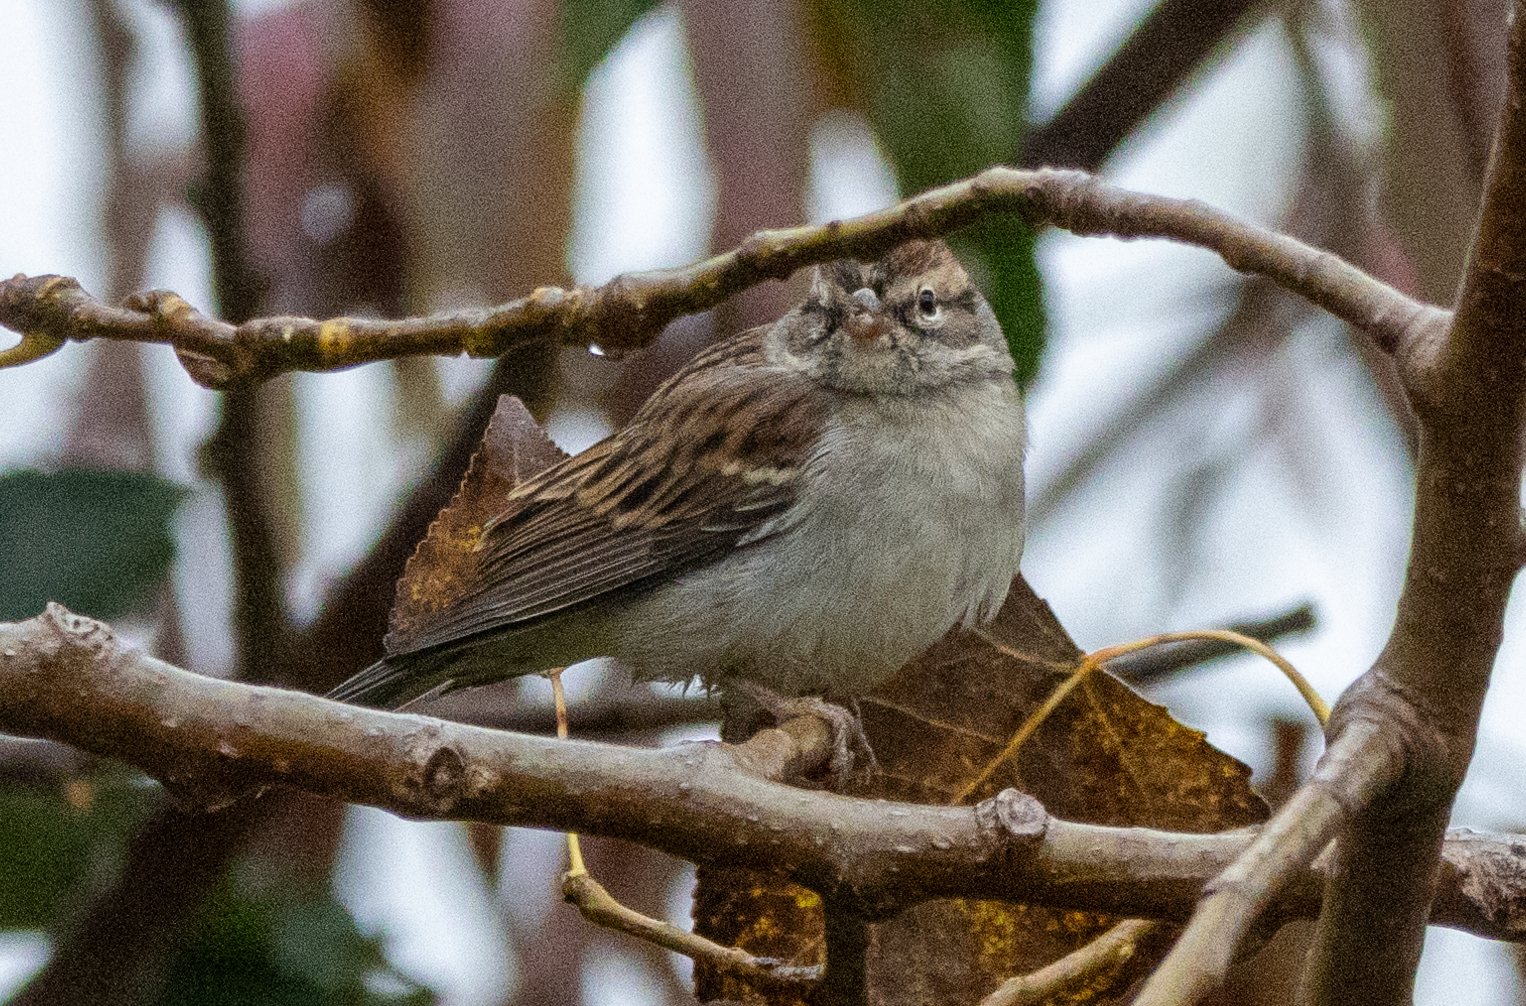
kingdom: Animalia
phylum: Chordata
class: Aves
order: Passeriformes
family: Passerellidae
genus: Spizella
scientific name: Spizella passerina
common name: Chipping sparrow
